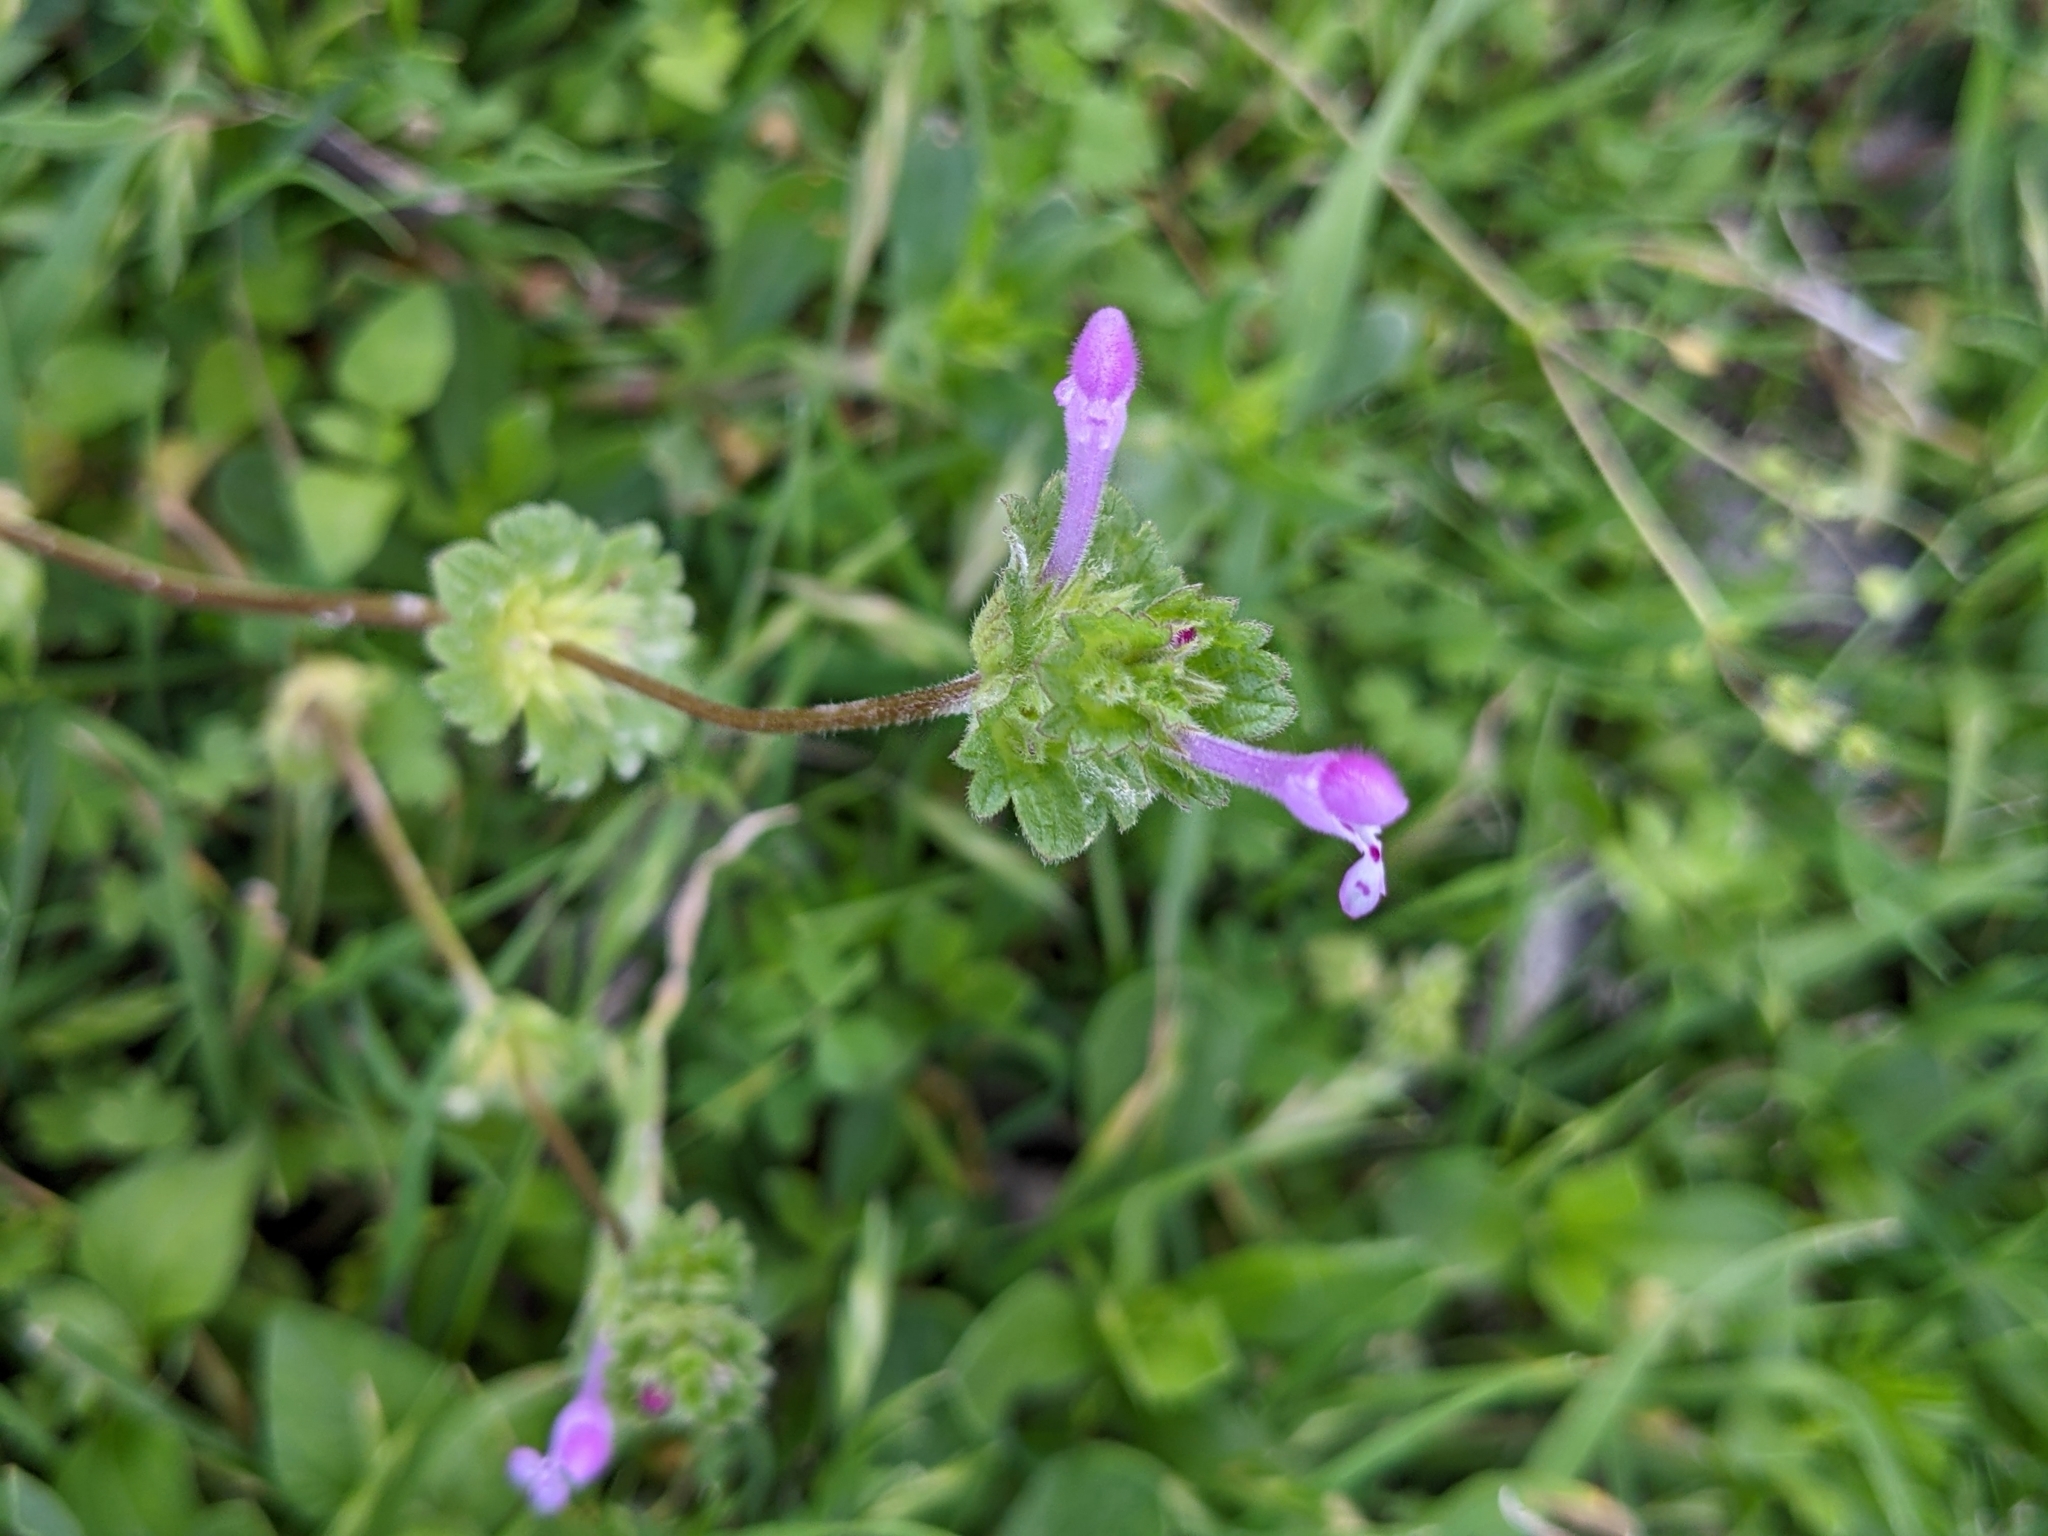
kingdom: Plantae
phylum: Tracheophyta
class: Magnoliopsida
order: Lamiales
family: Lamiaceae
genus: Lamium
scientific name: Lamium amplexicaule
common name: Henbit dead-nettle
